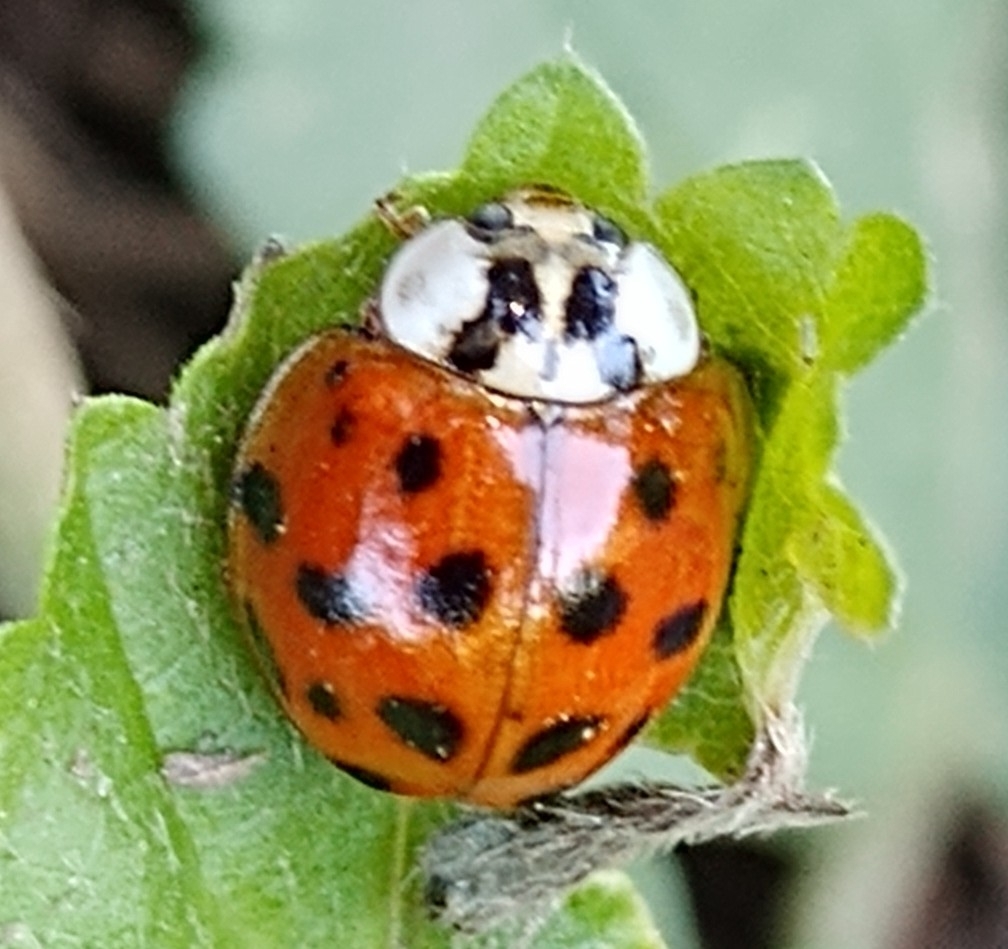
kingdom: Animalia
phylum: Arthropoda
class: Insecta
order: Coleoptera
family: Coccinellidae
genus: Harmonia
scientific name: Harmonia axyridis
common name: Harlequin ladybird
